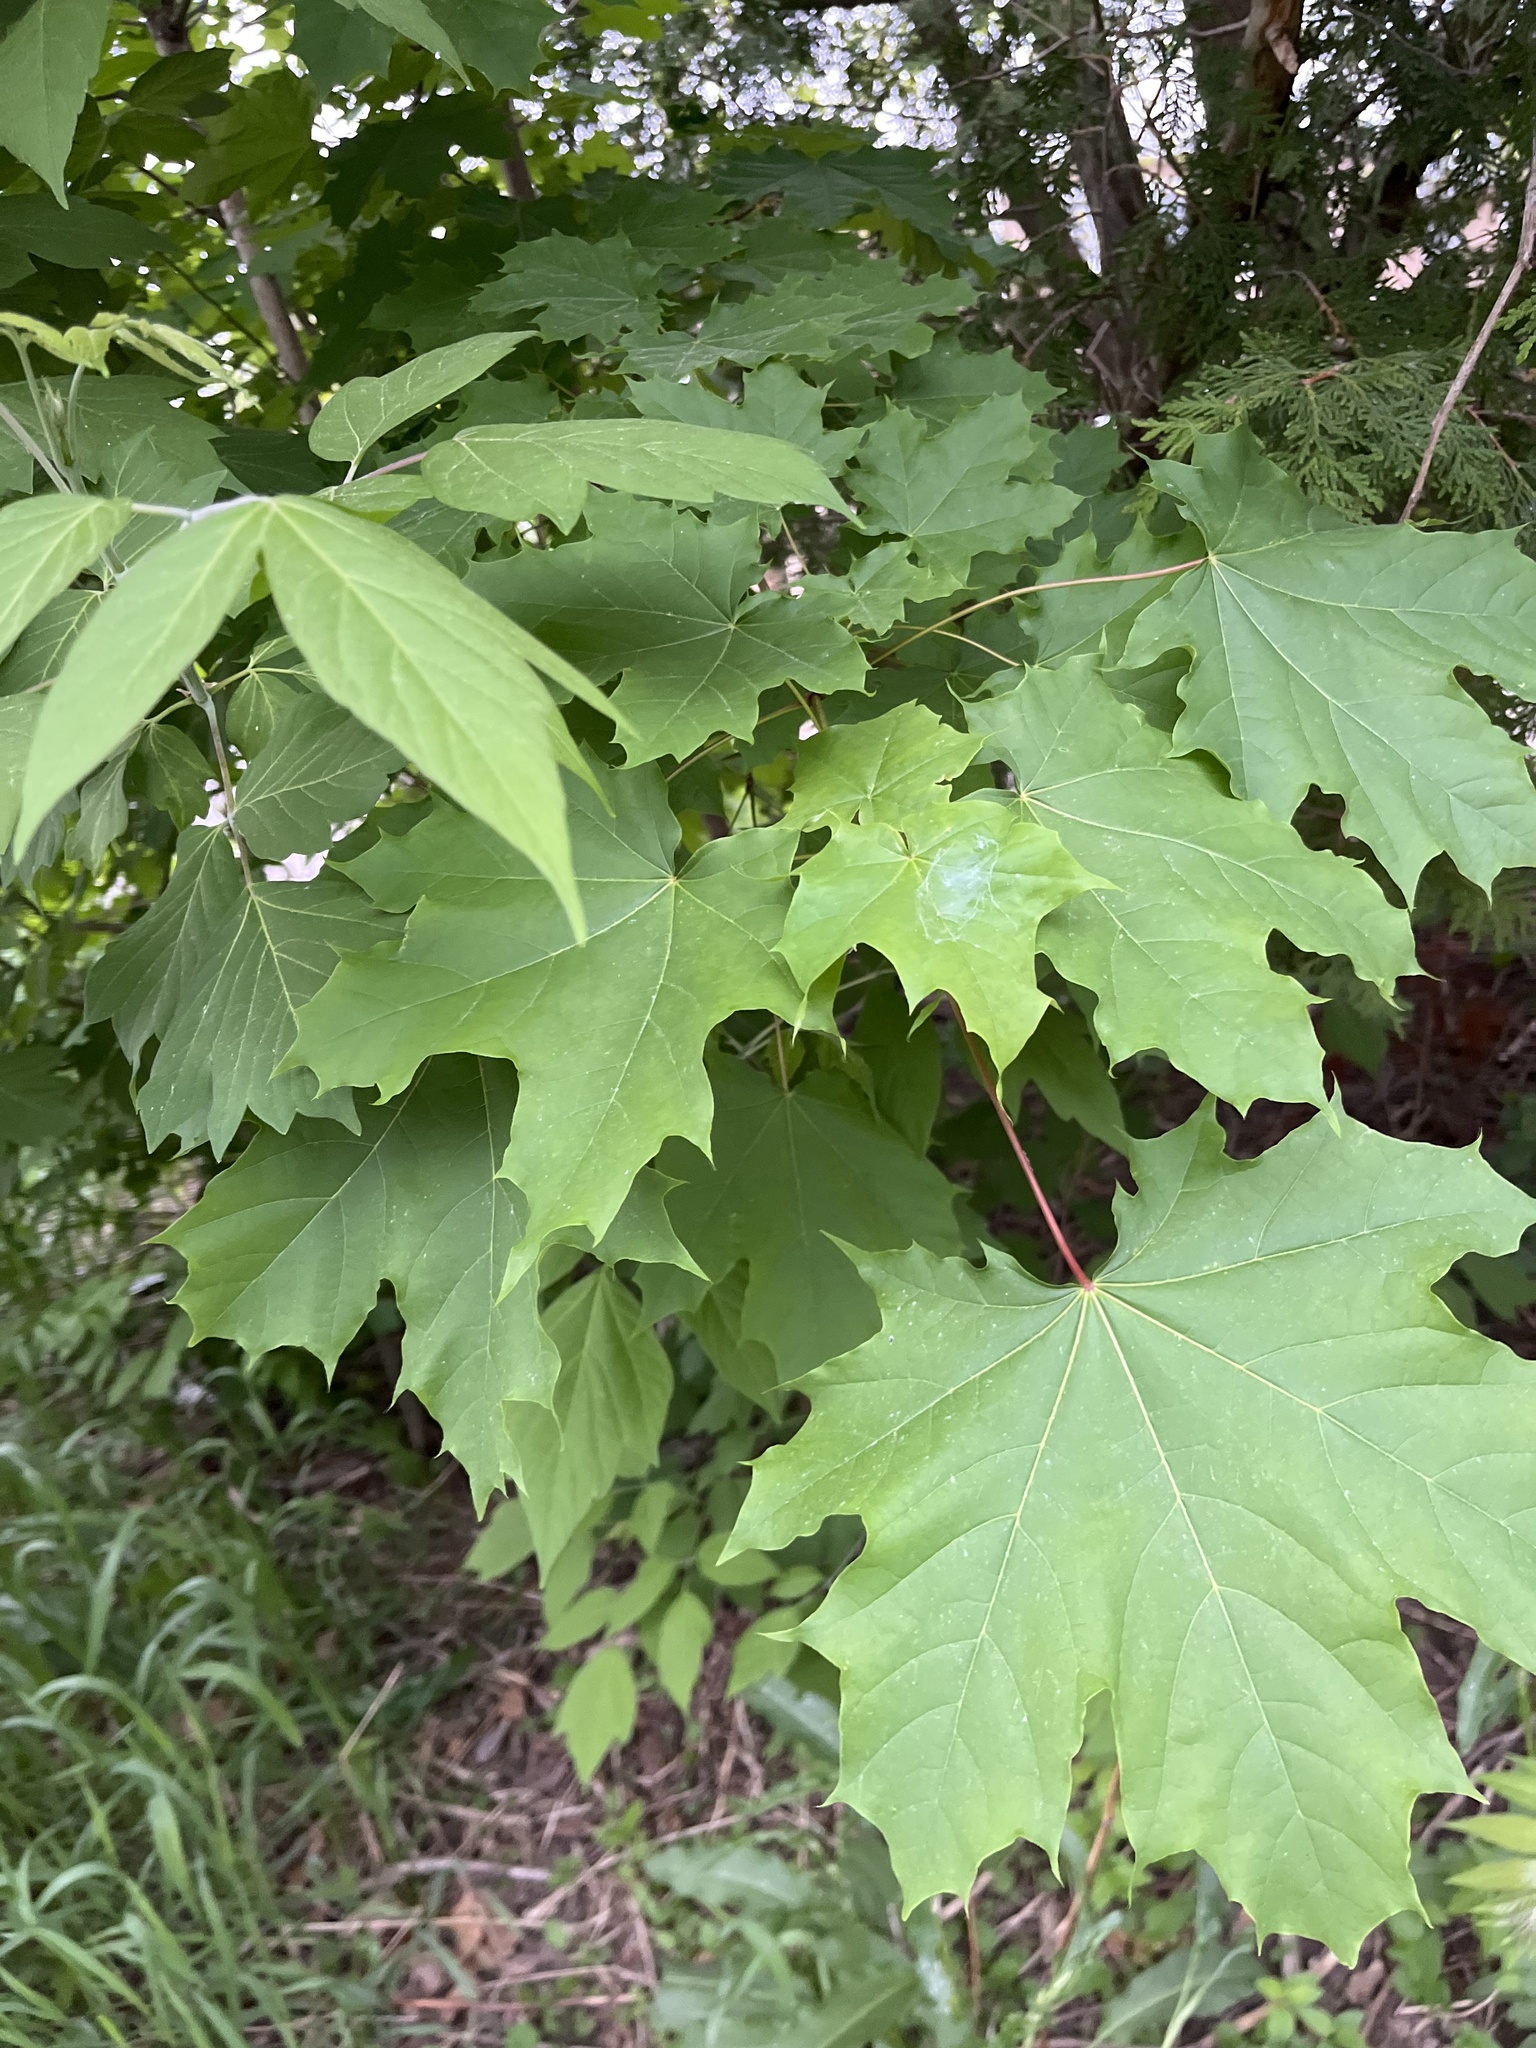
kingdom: Plantae
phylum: Tracheophyta
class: Magnoliopsida
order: Sapindales
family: Sapindaceae
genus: Acer
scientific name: Acer platanoides
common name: Norway maple
